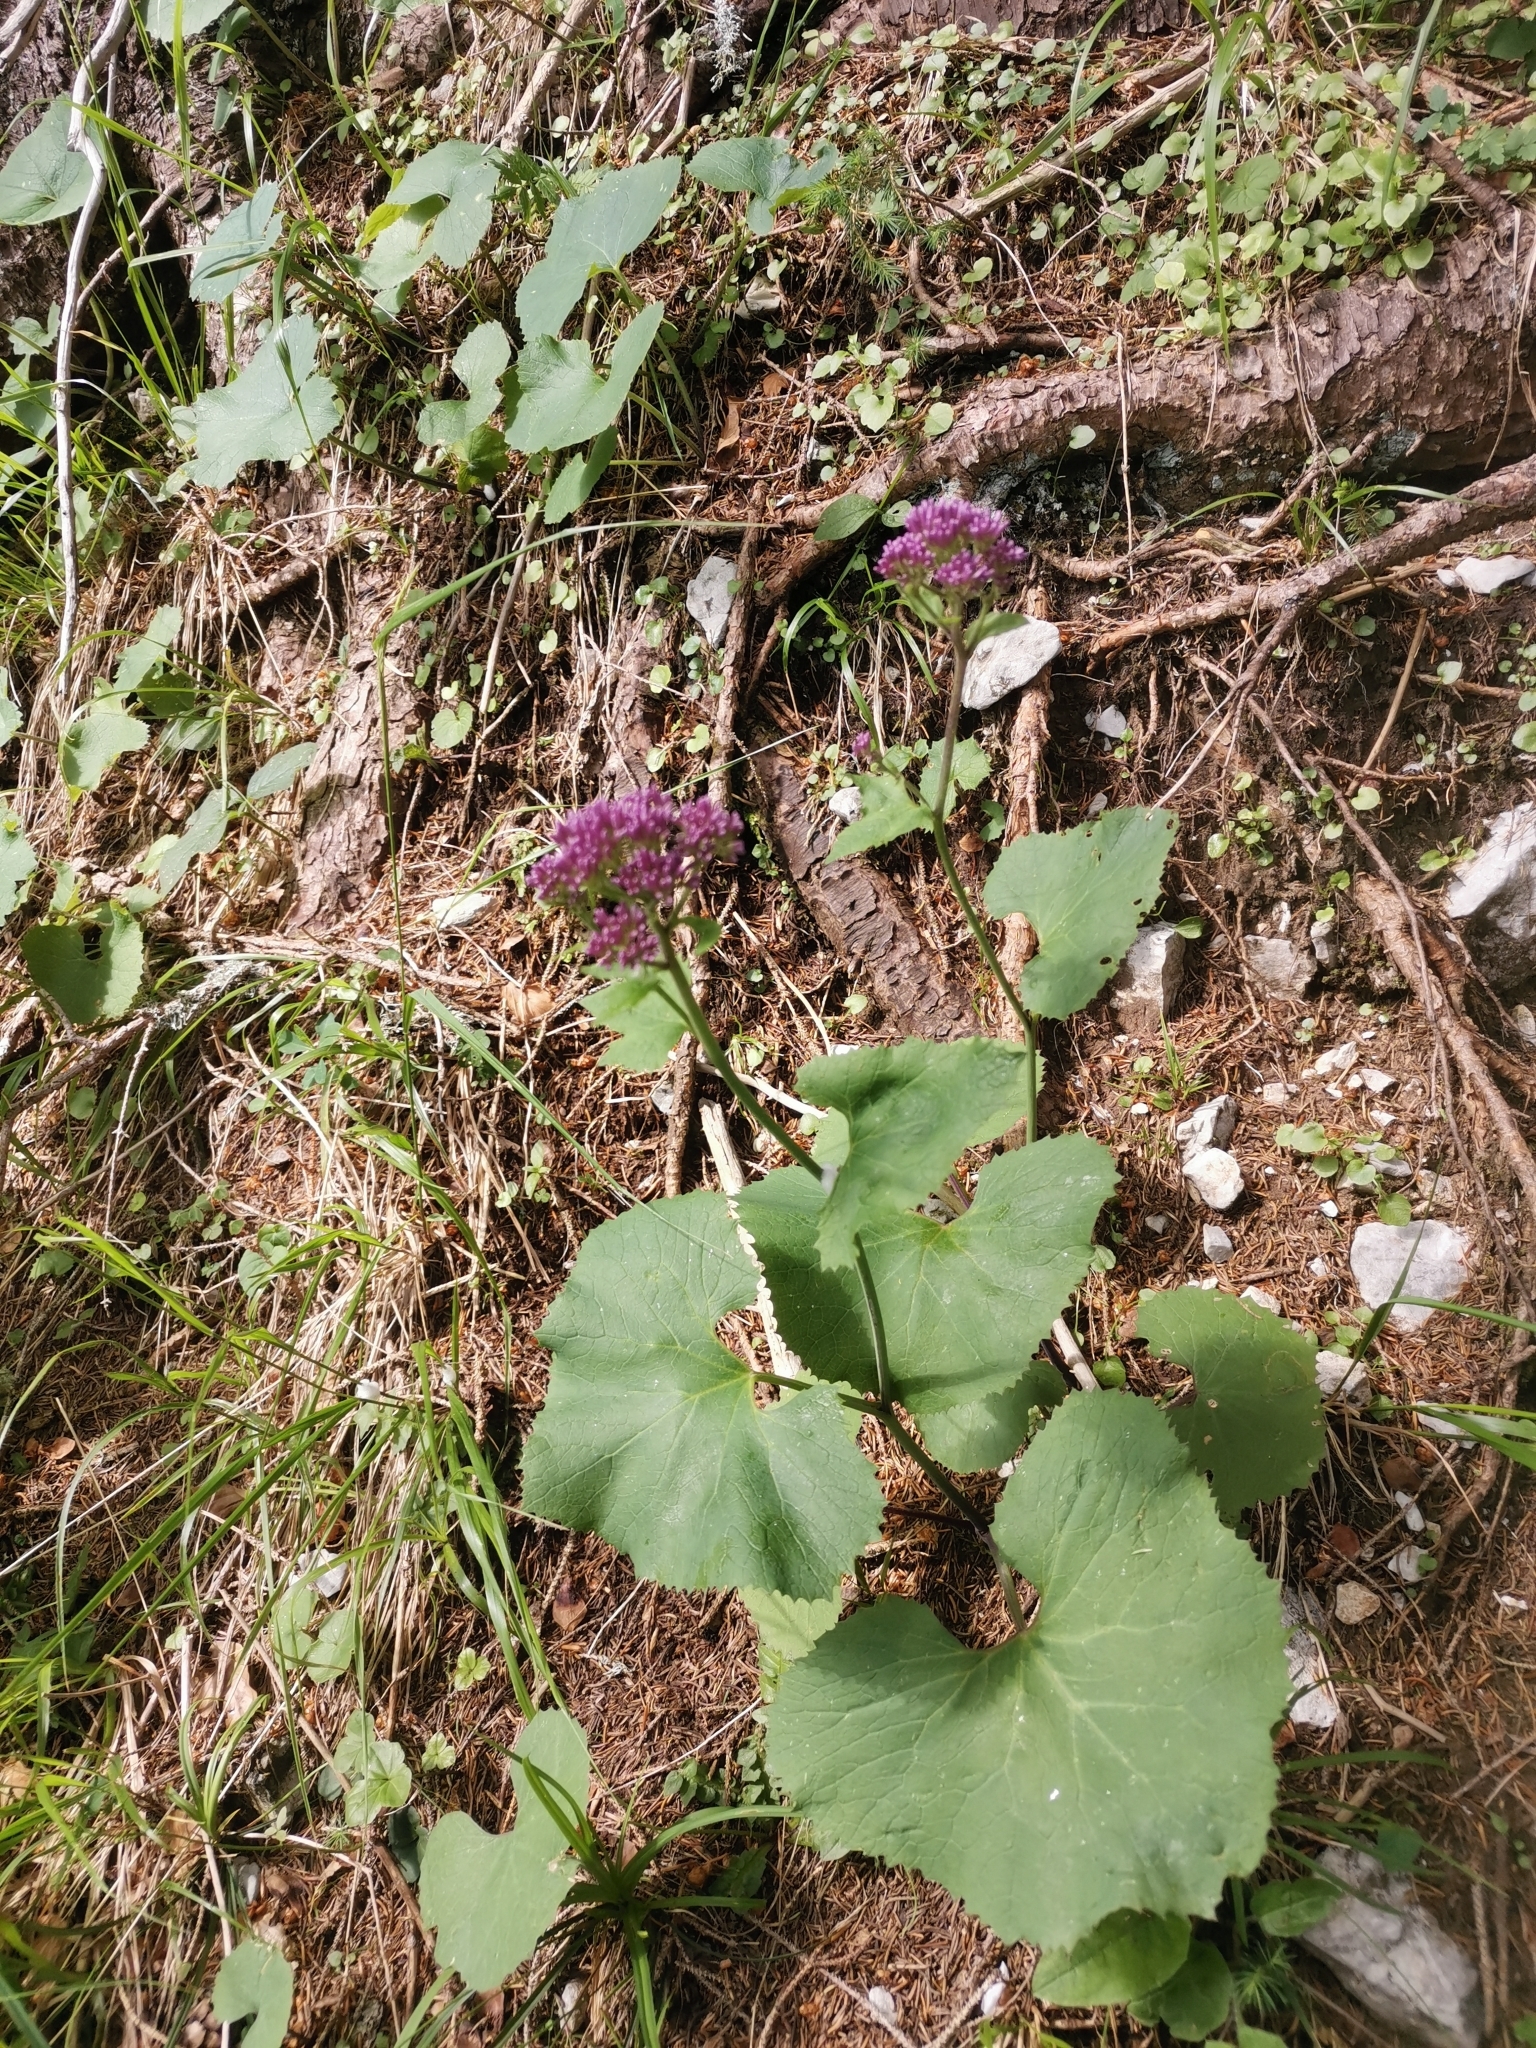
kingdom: Plantae
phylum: Tracheophyta
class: Magnoliopsida
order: Asterales
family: Asteraceae
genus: Adenostyles
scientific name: Adenostyles alpina
